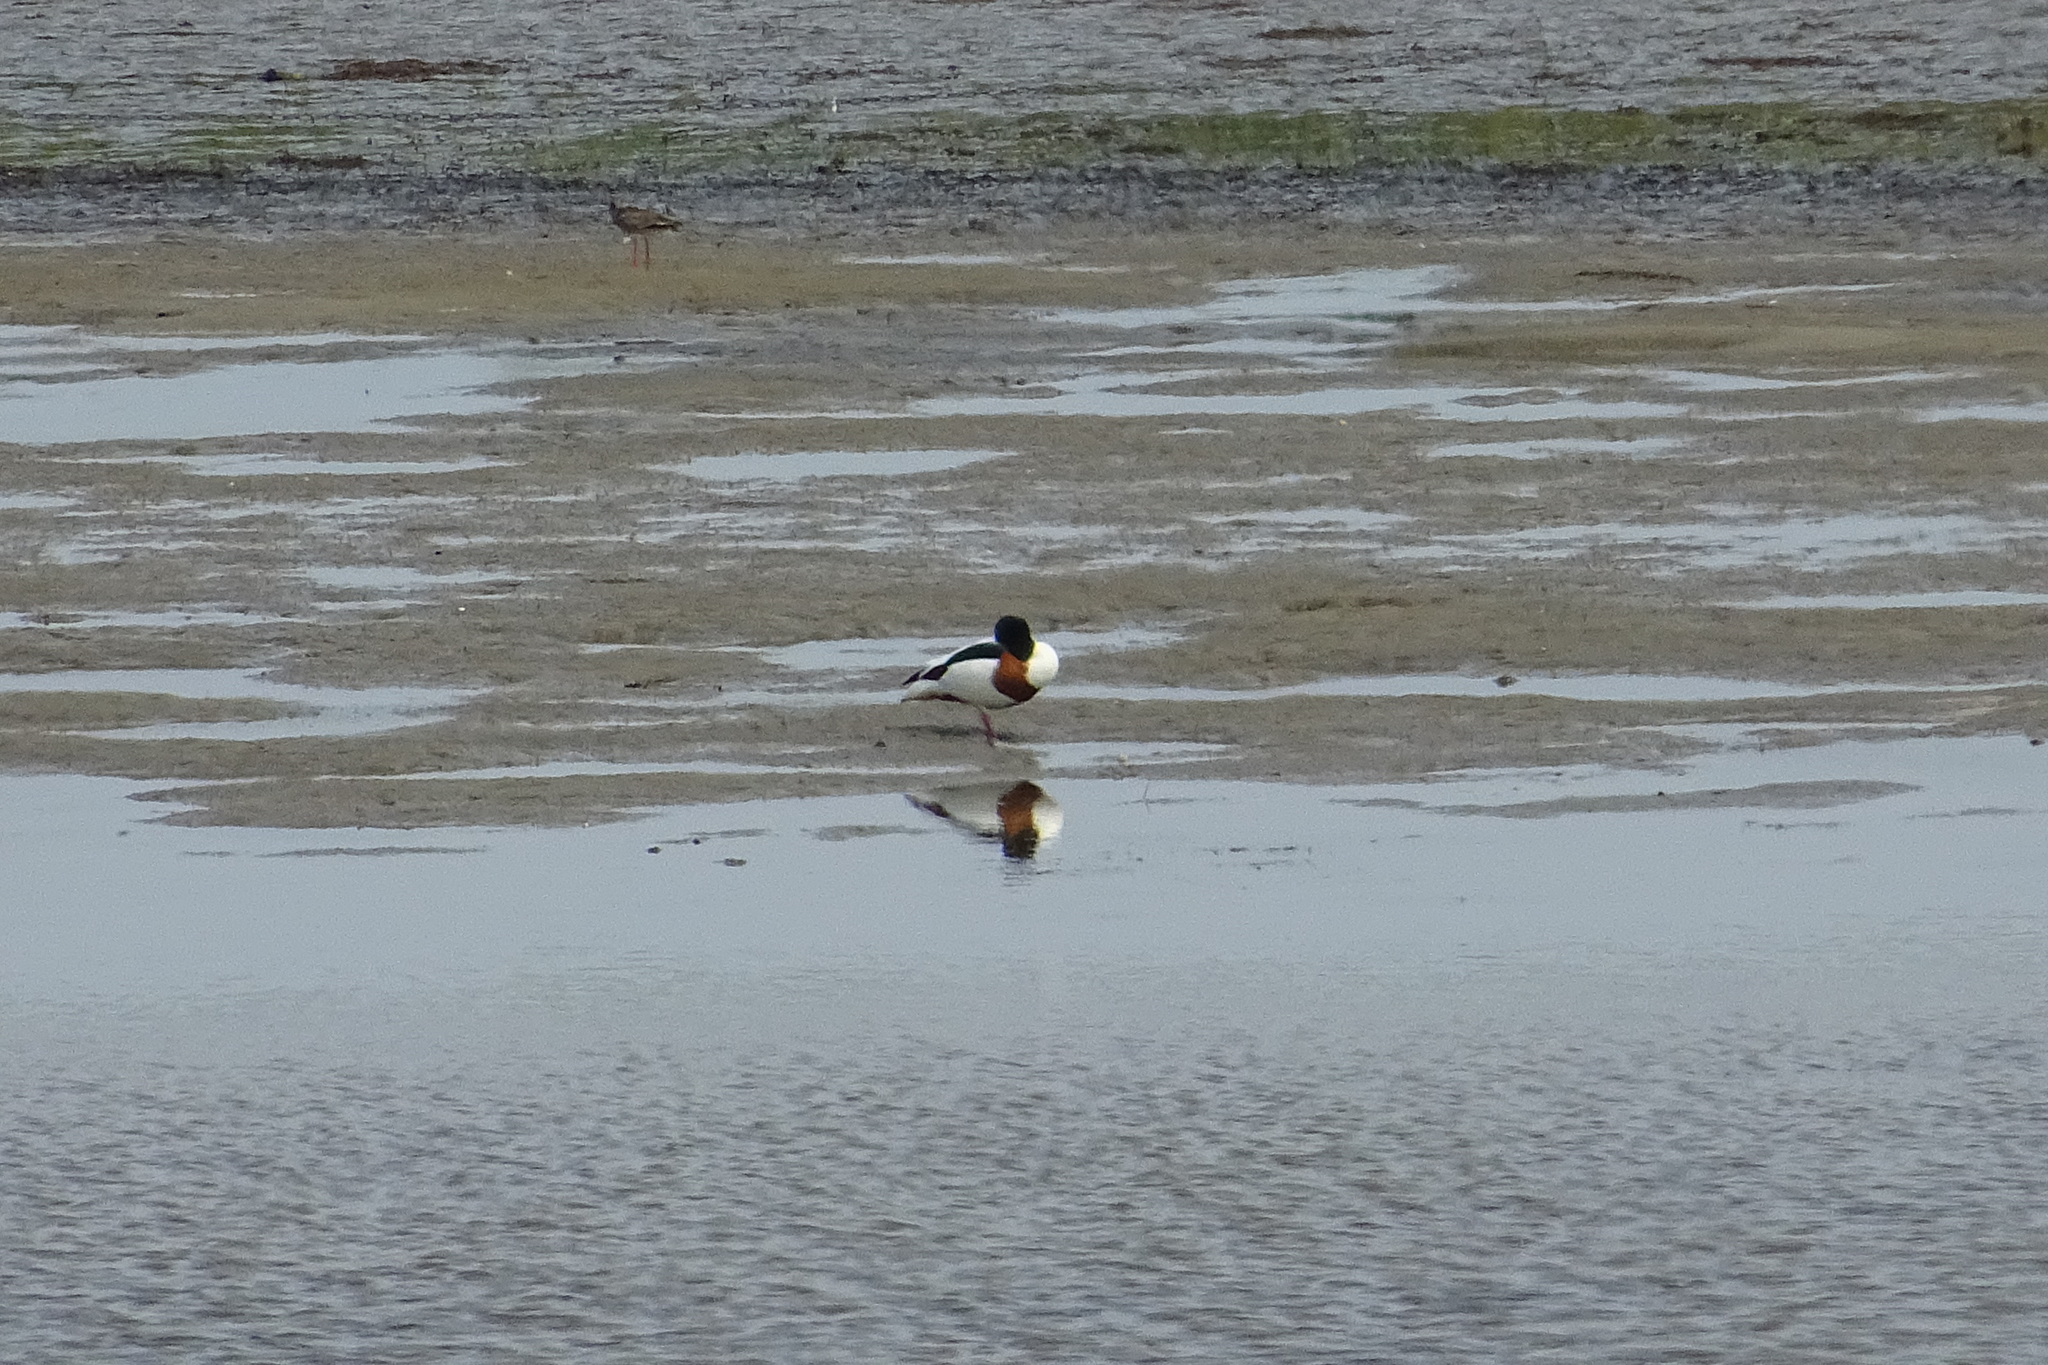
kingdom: Animalia
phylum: Chordata
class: Aves
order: Anseriformes
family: Anatidae
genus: Tadorna
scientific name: Tadorna tadorna
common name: Common shelduck
